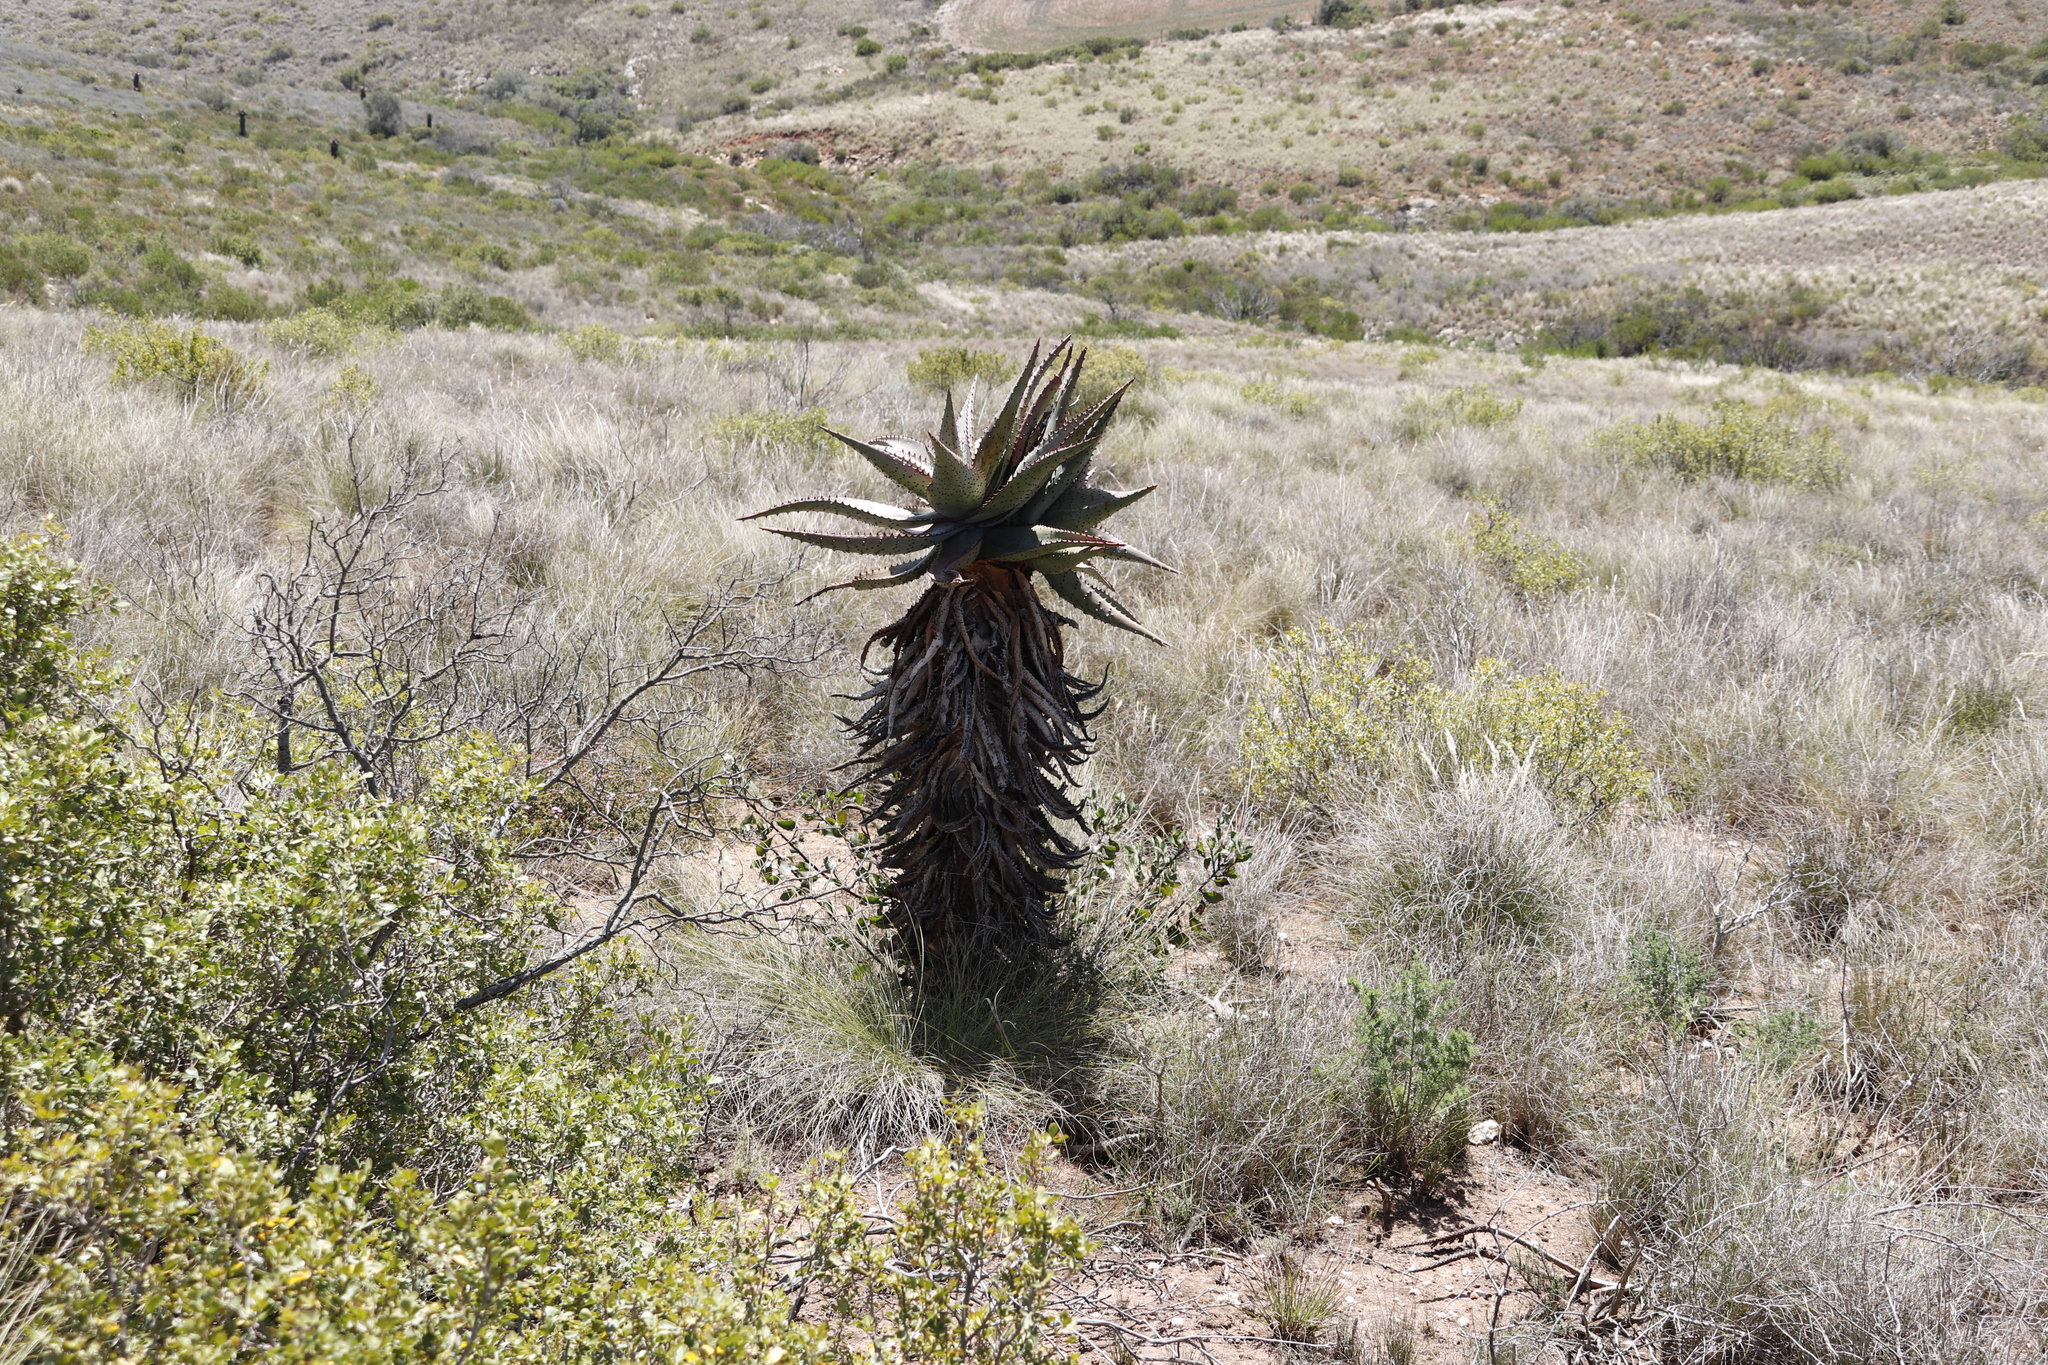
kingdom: Plantae
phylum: Tracheophyta
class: Liliopsida
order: Asparagales
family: Asphodelaceae
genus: Aloe
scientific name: Aloe ferox
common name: Bitter aloe
